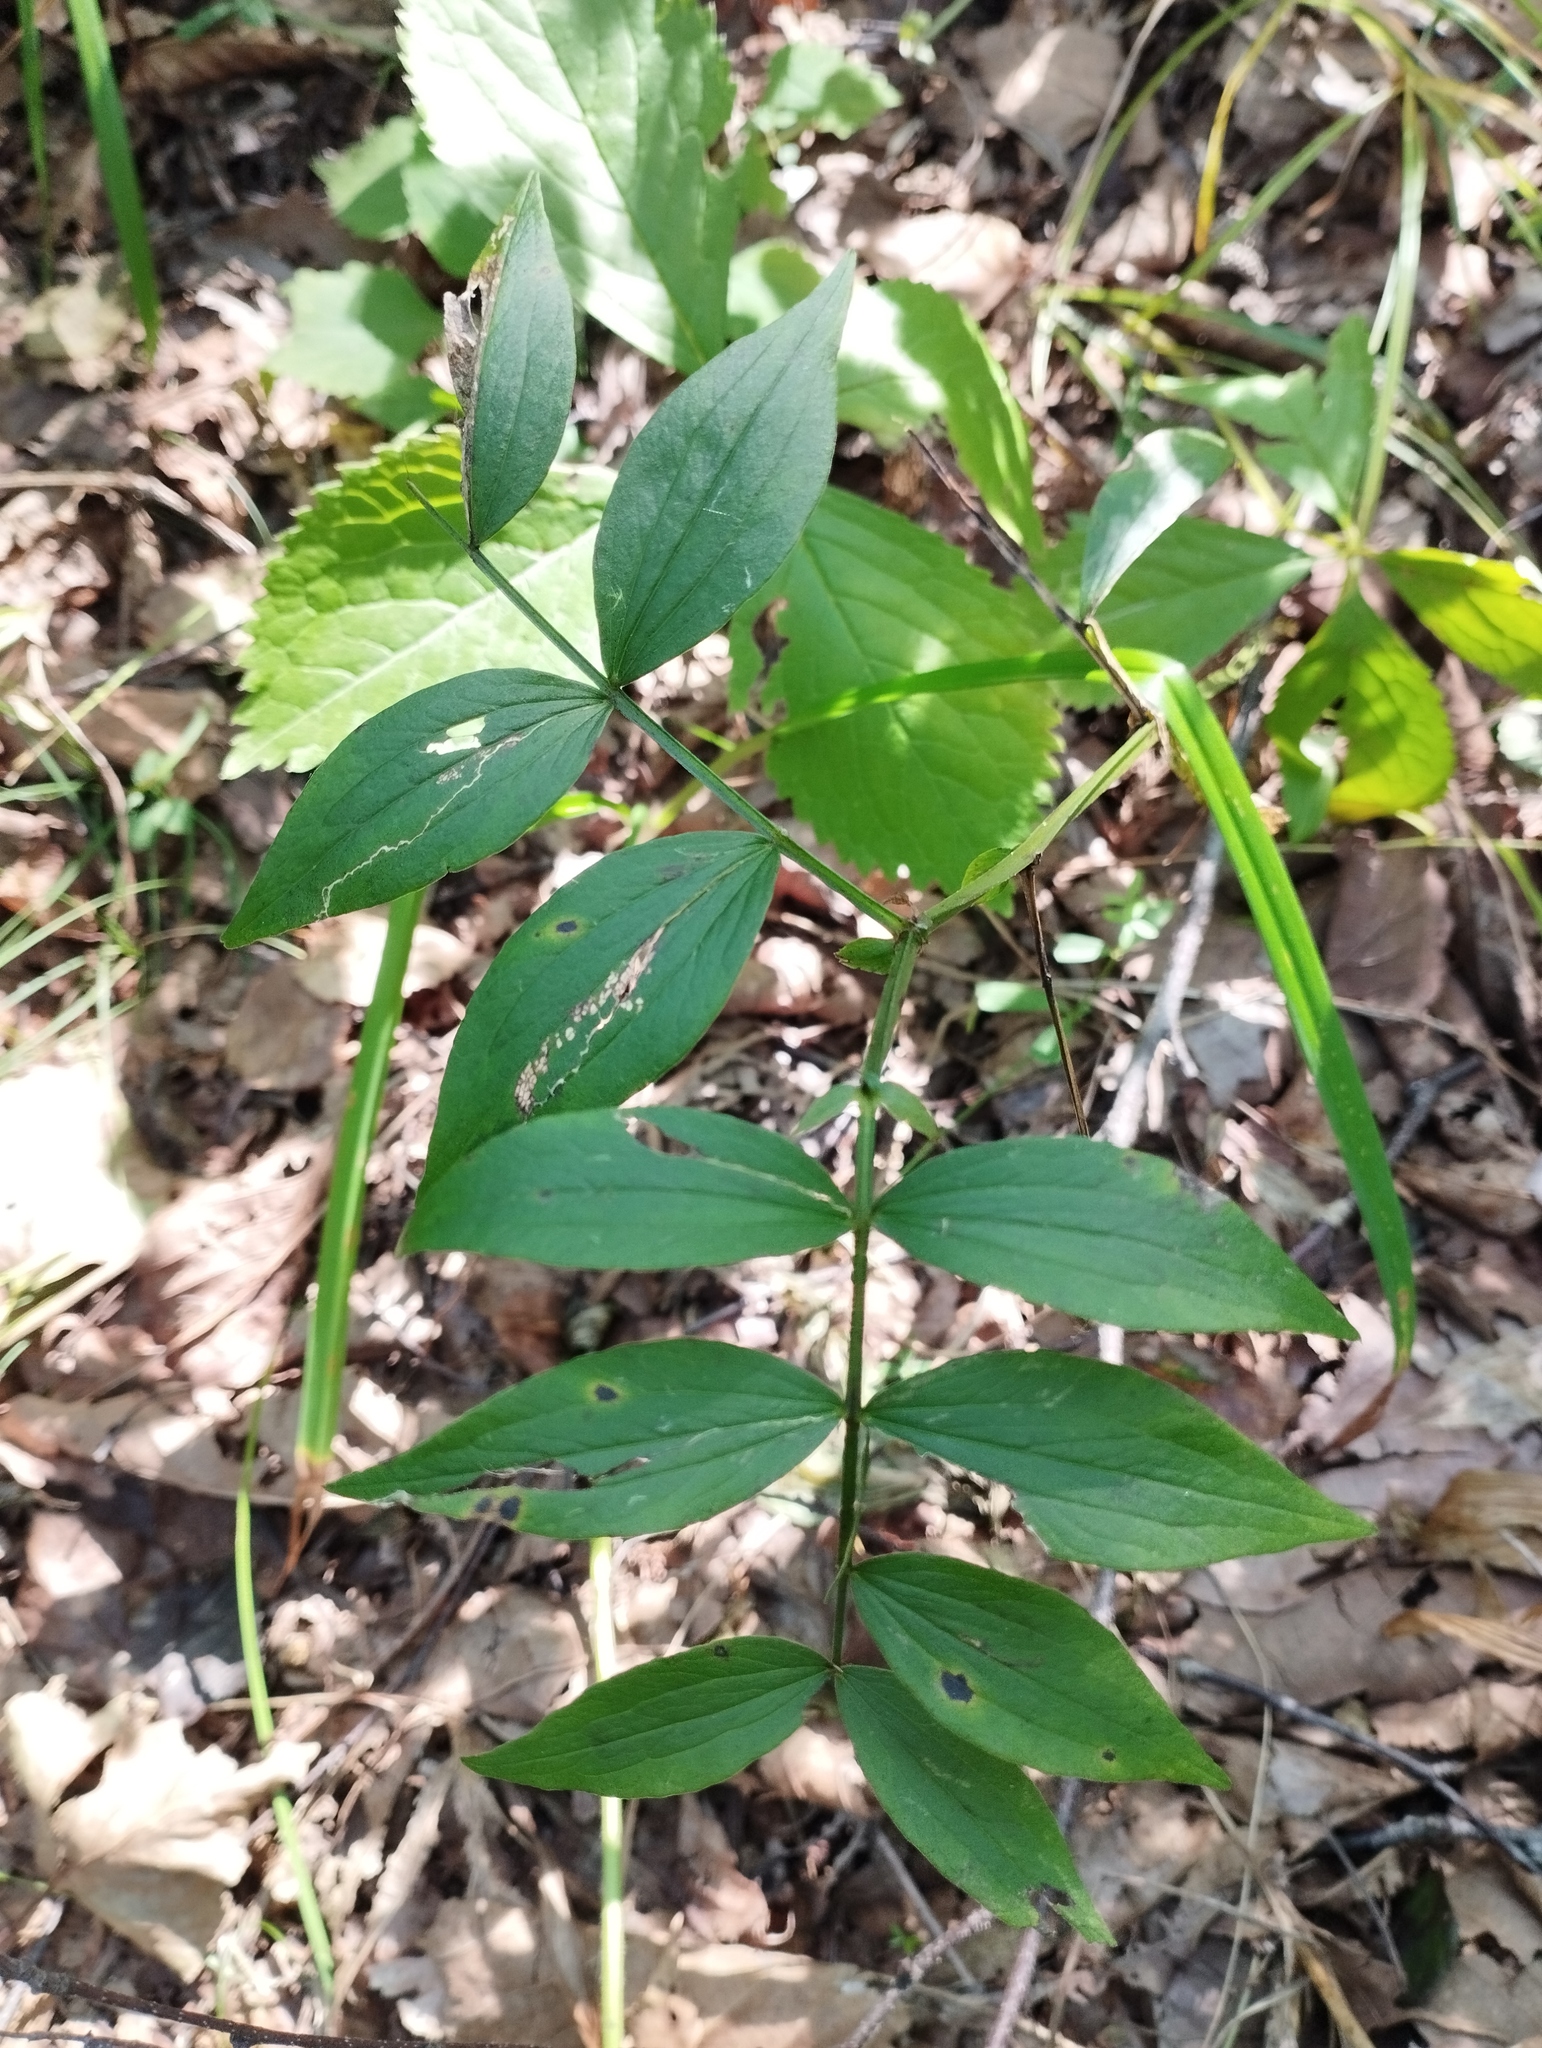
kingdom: Plantae
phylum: Tracheophyta
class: Magnoliopsida
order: Fabales
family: Fabaceae
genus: Lathyrus
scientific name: Lathyrus komarovii
